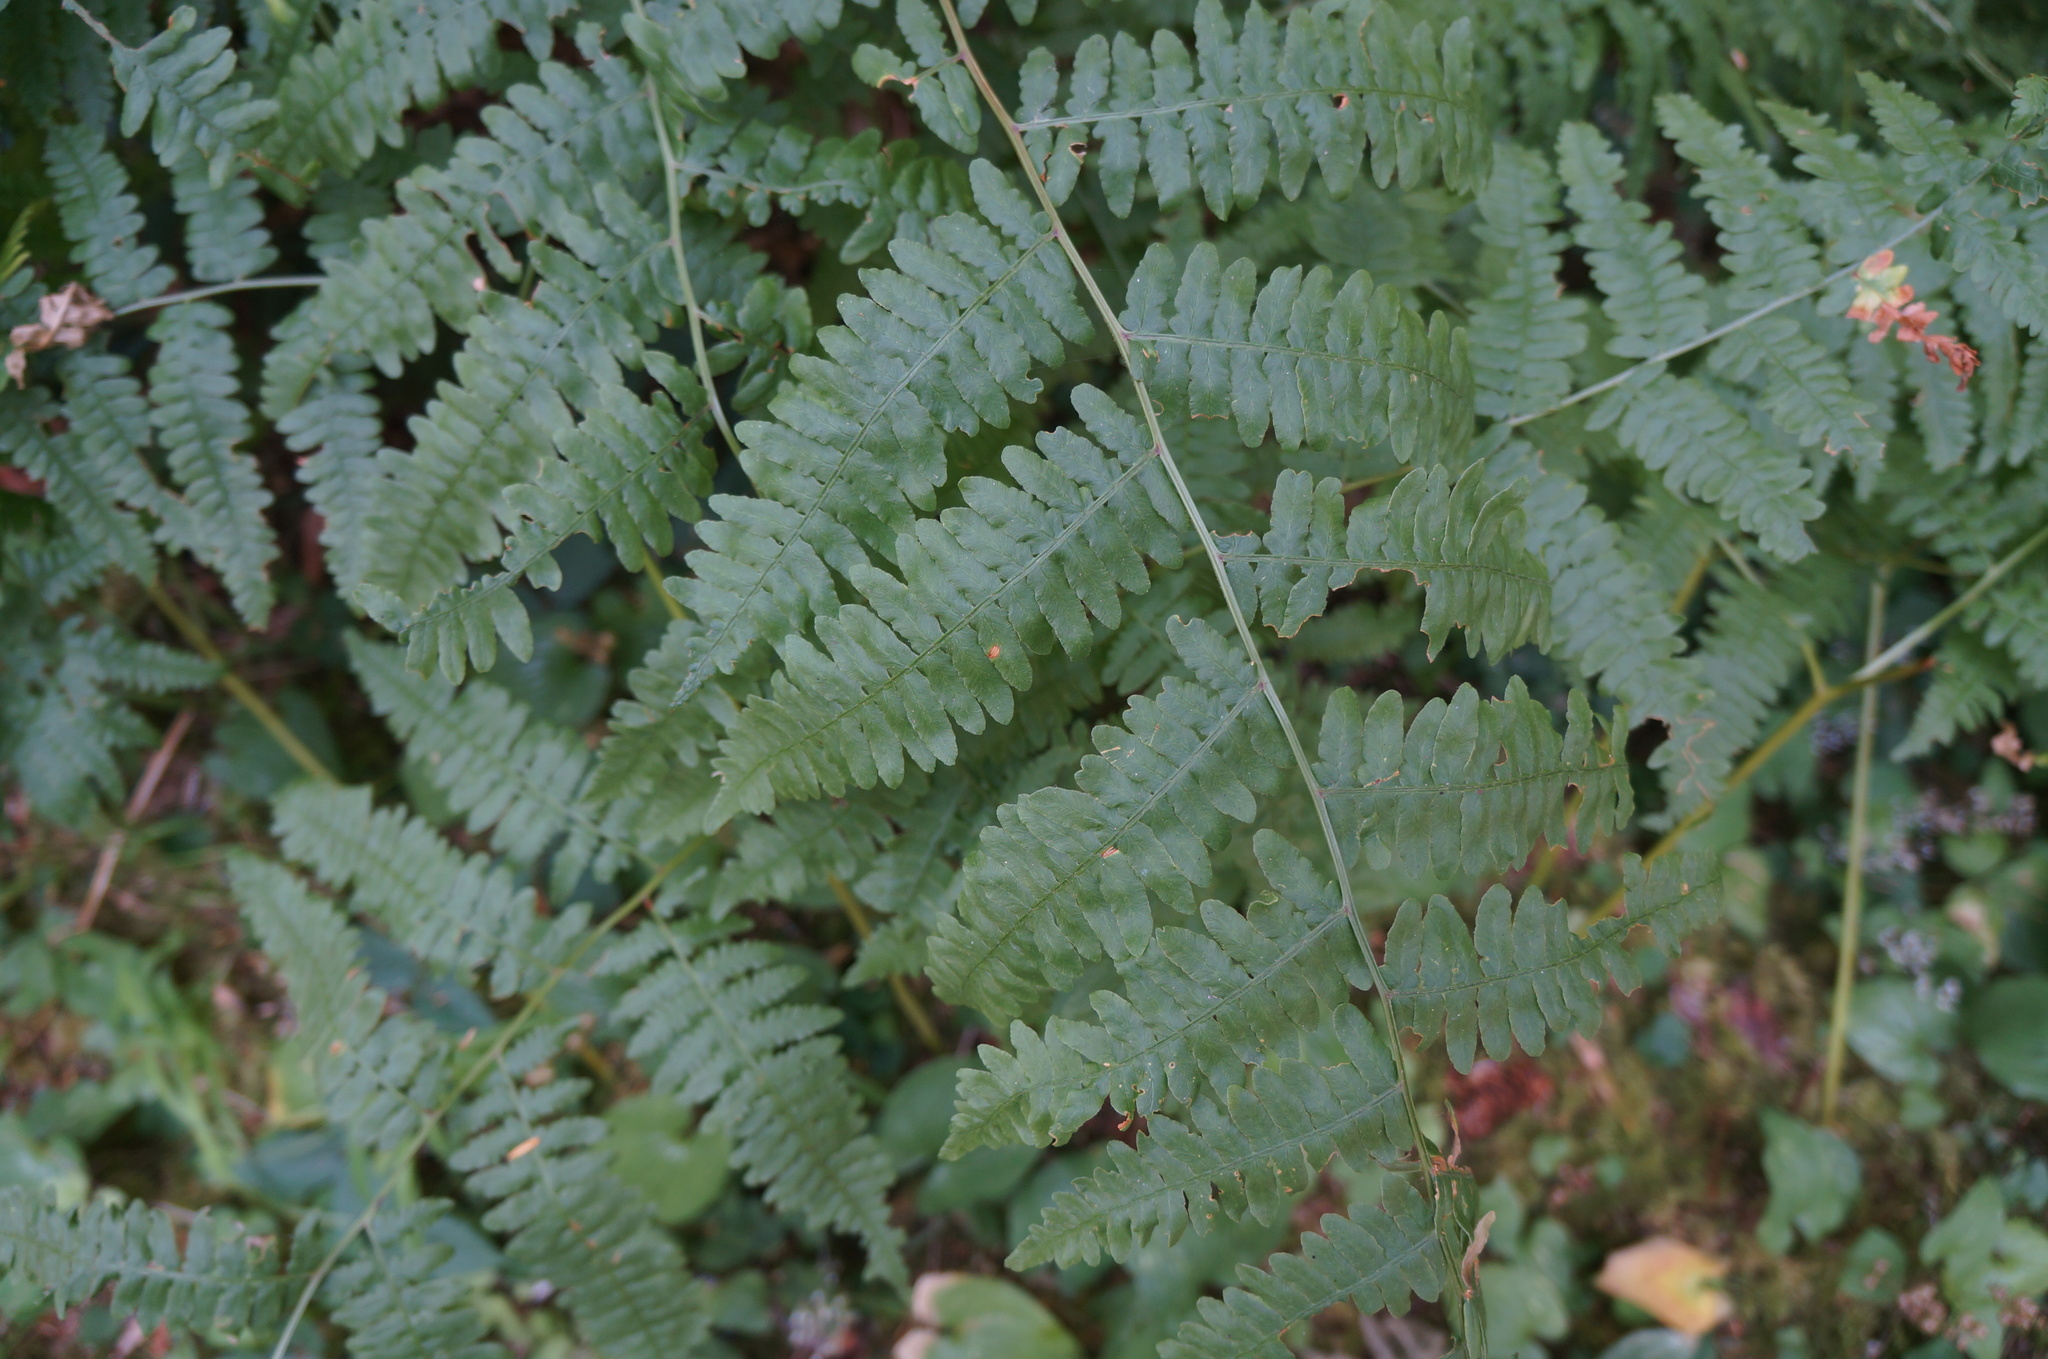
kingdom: Plantae
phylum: Tracheophyta
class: Polypodiopsida
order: Polypodiales
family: Dennstaedtiaceae
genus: Pteridium
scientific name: Pteridium aquilinum
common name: Bracken
